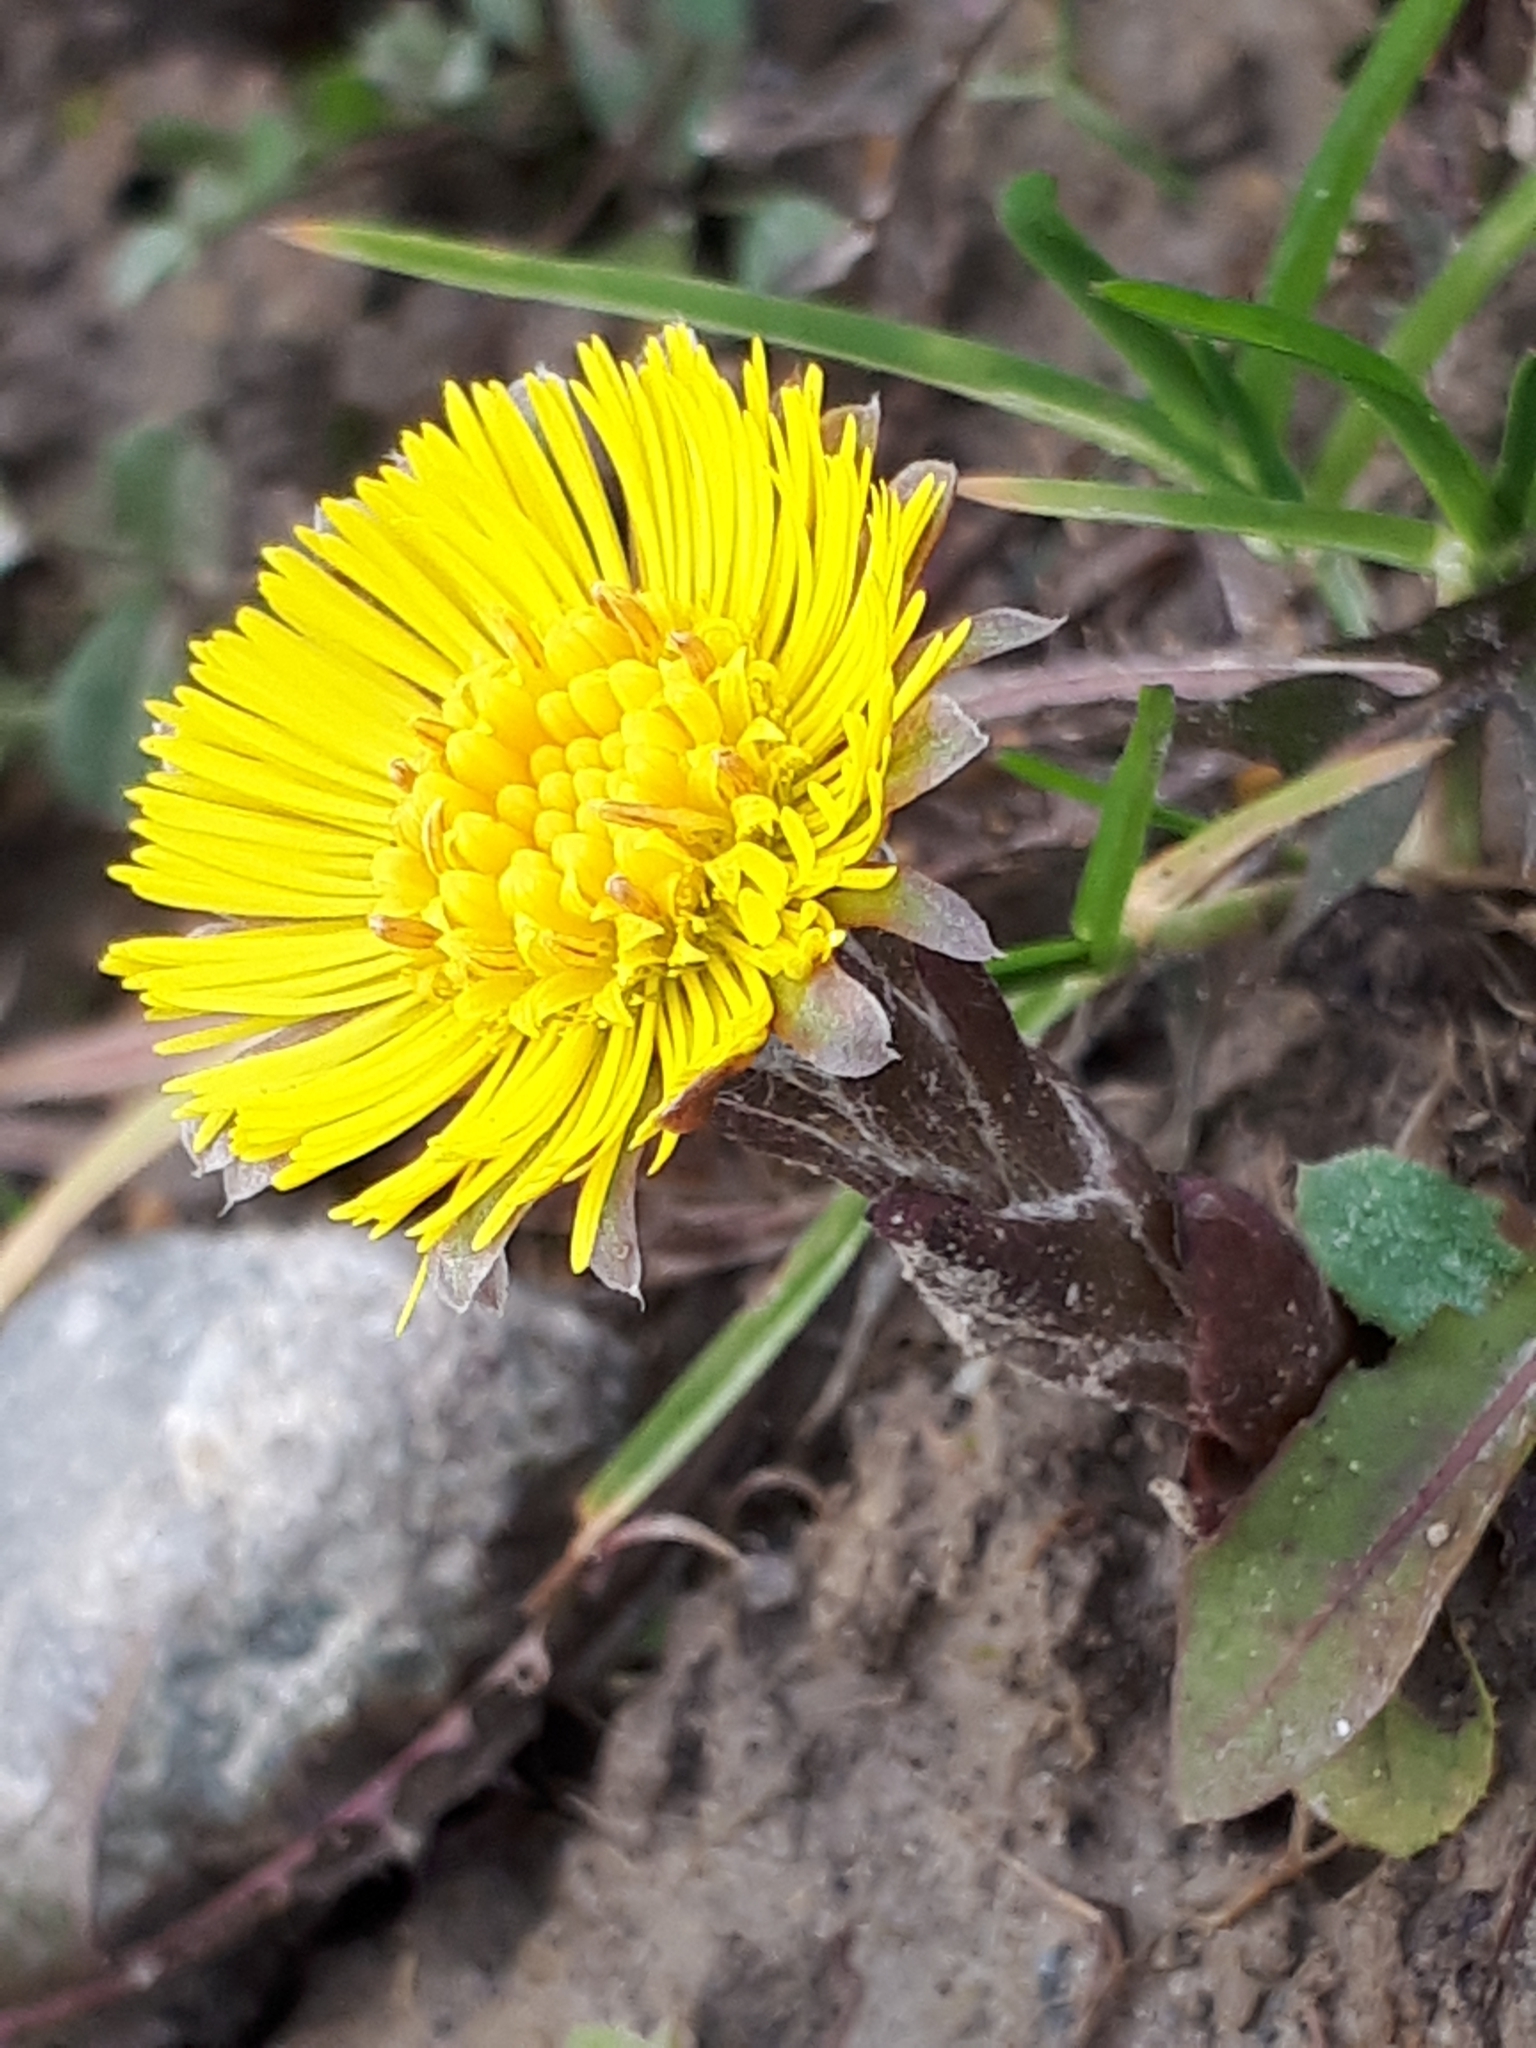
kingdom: Plantae
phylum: Tracheophyta
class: Magnoliopsida
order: Asterales
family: Asteraceae
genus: Tussilago
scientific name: Tussilago farfara
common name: Coltsfoot
